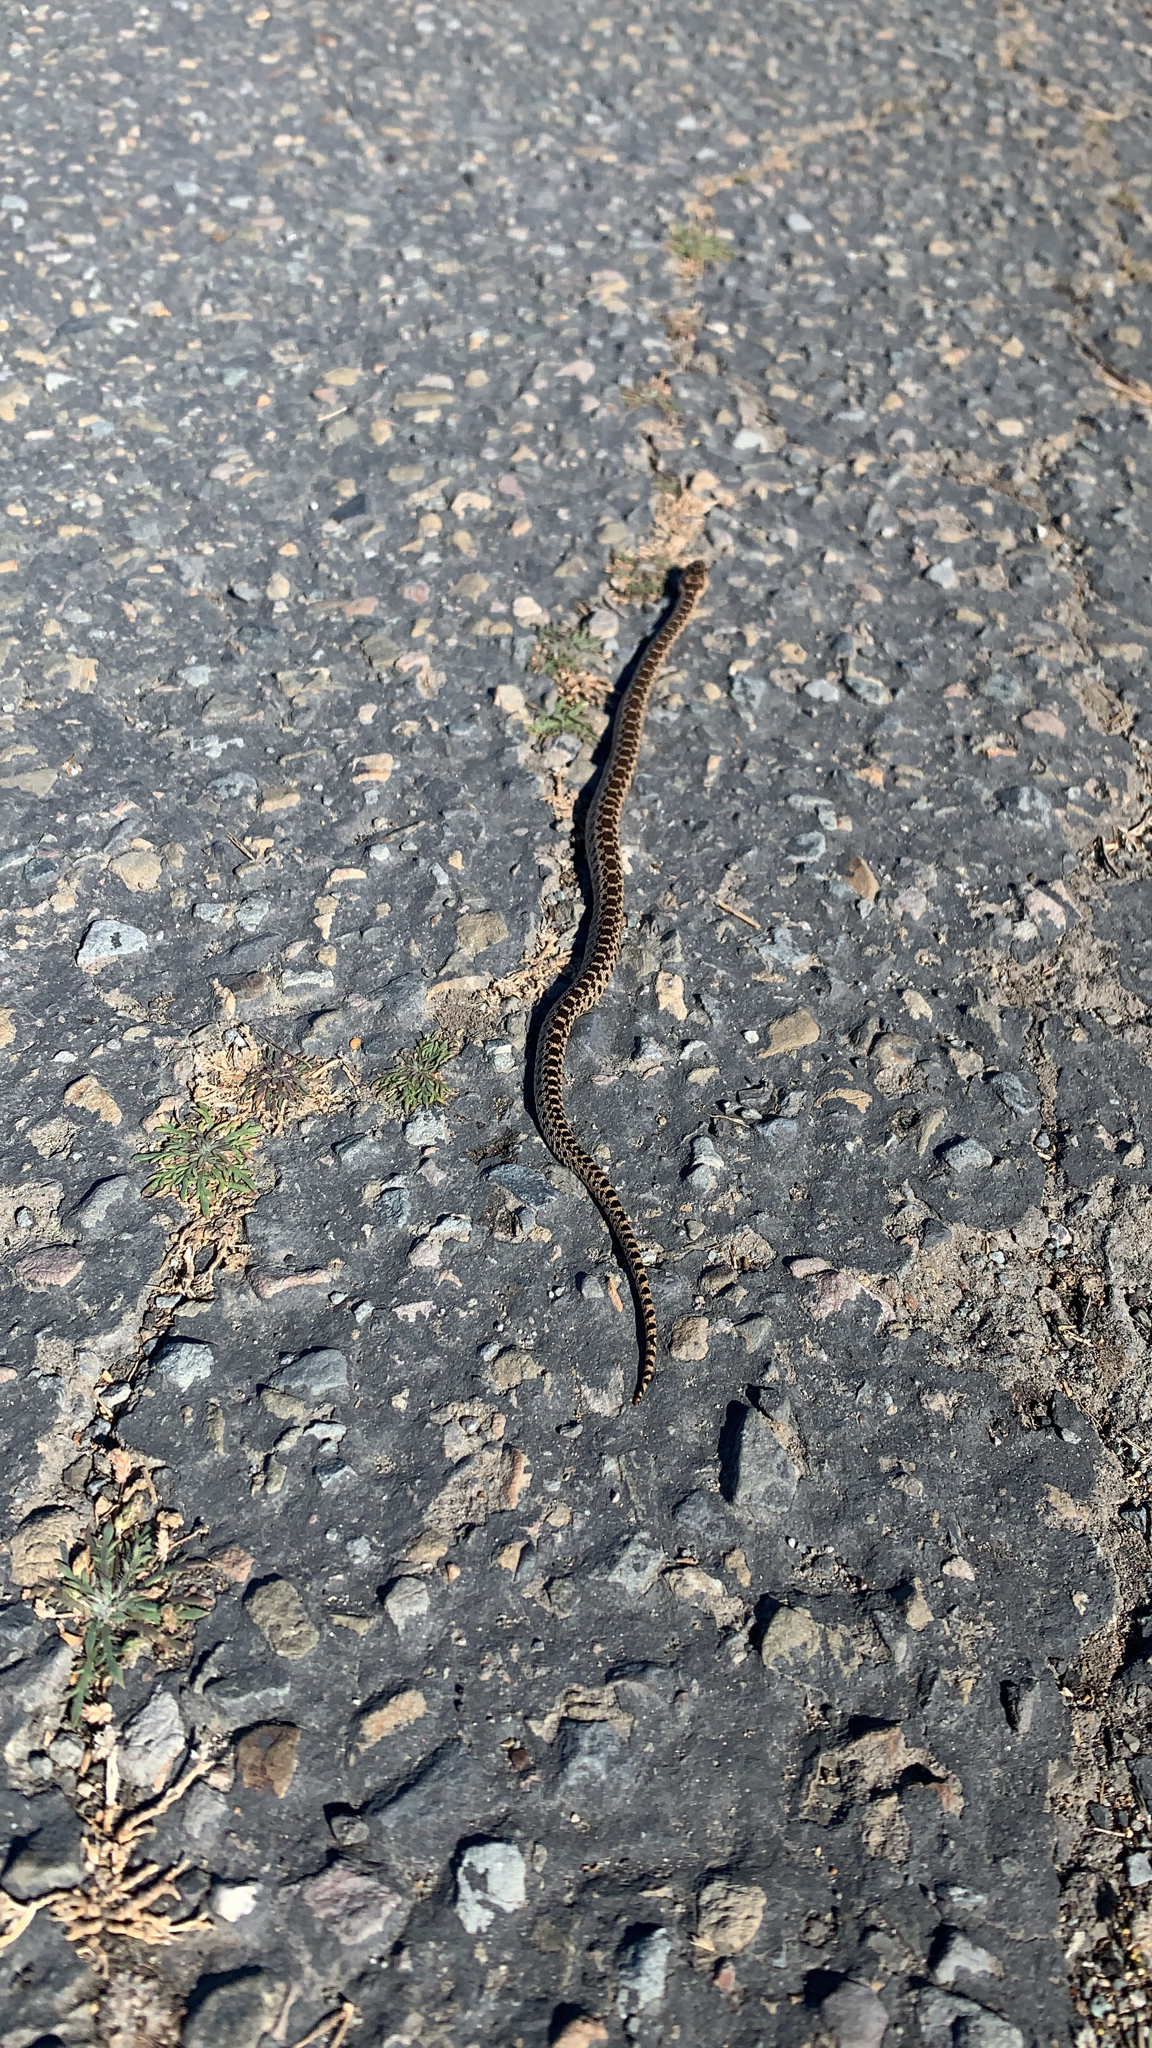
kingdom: Animalia
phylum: Chordata
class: Squamata
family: Colubridae
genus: Pituophis
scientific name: Pituophis catenifer
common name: Gopher snake
